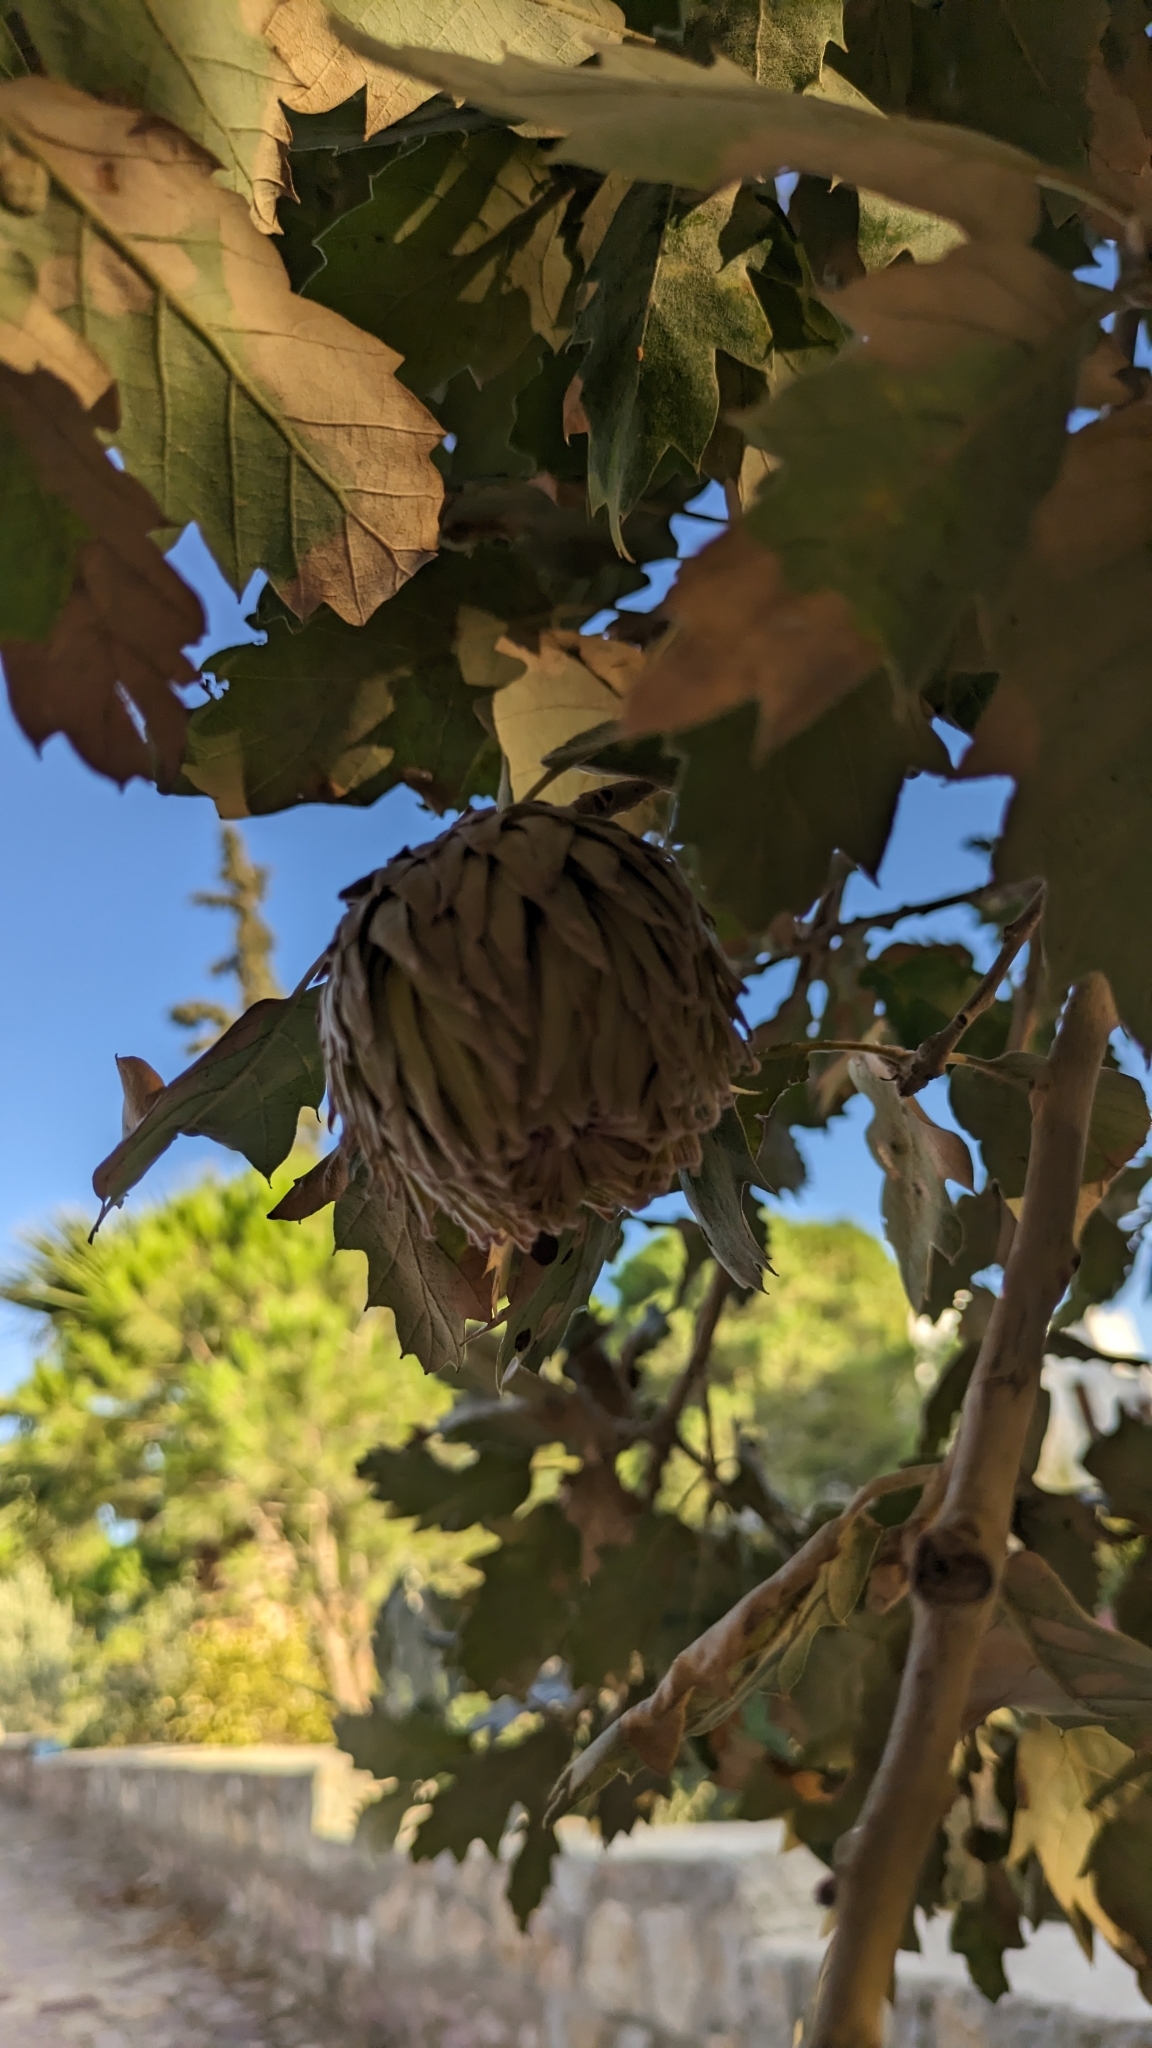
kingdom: Plantae
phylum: Tracheophyta
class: Magnoliopsida
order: Fagales
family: Fagaceae
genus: Quercus
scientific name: Quercus ithaburensis
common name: Tabor oak
